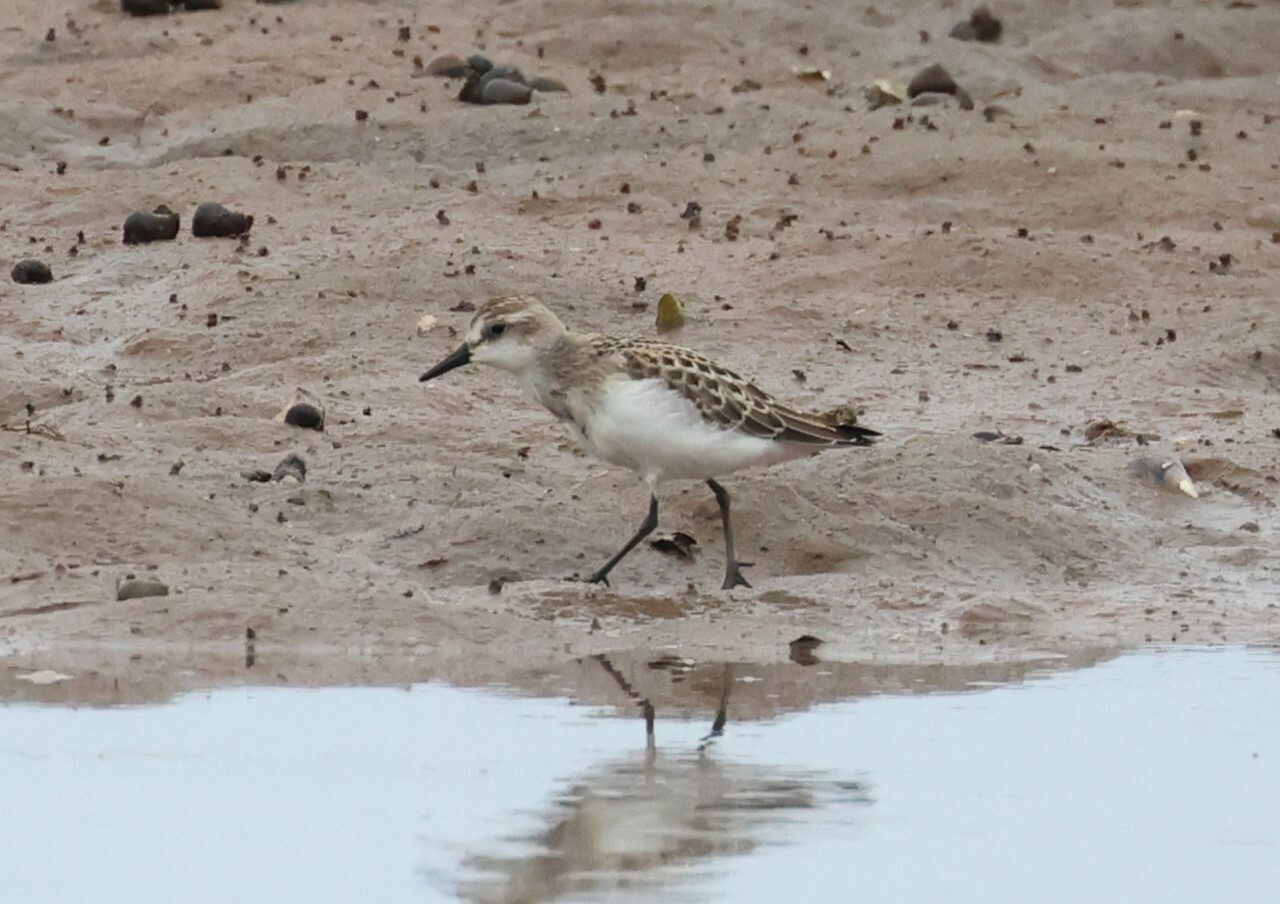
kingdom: Animalia
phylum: Chordata
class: Aves
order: Charadriiformes
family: Scolopacidae
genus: Calidris
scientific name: Calidris pusilla
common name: Semipalmated sandpiper
